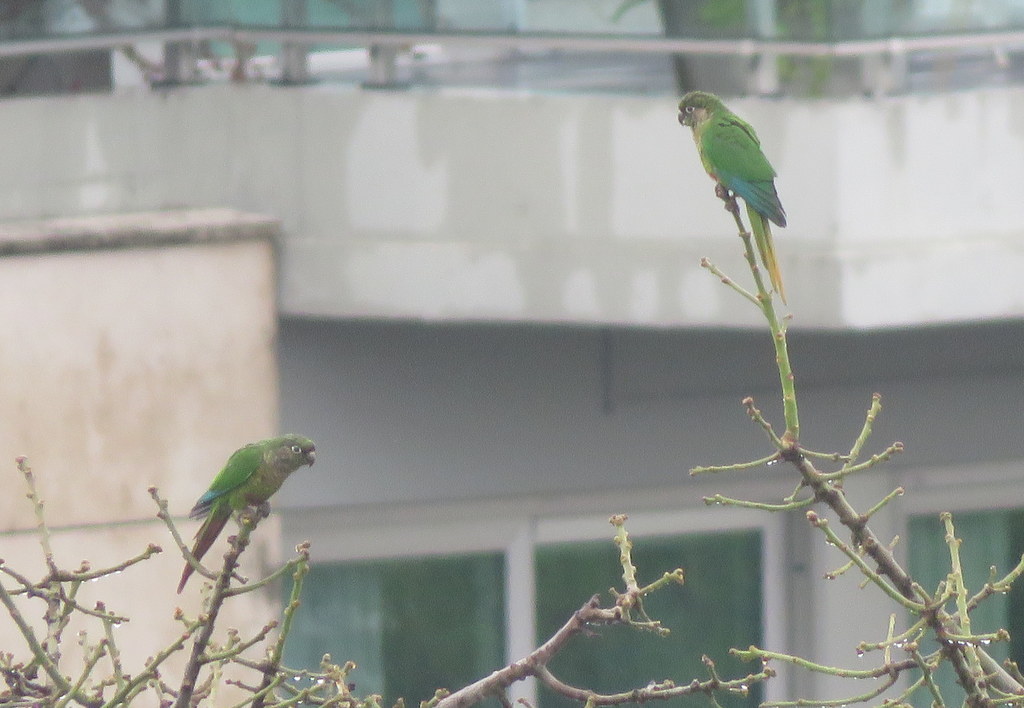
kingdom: Animalia
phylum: Chordata
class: Aves
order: Psittaciformes
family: Psittacidae
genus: Pyrrhura
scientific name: Pyrrhura frontalis
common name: Maroon-bellied parakeet
